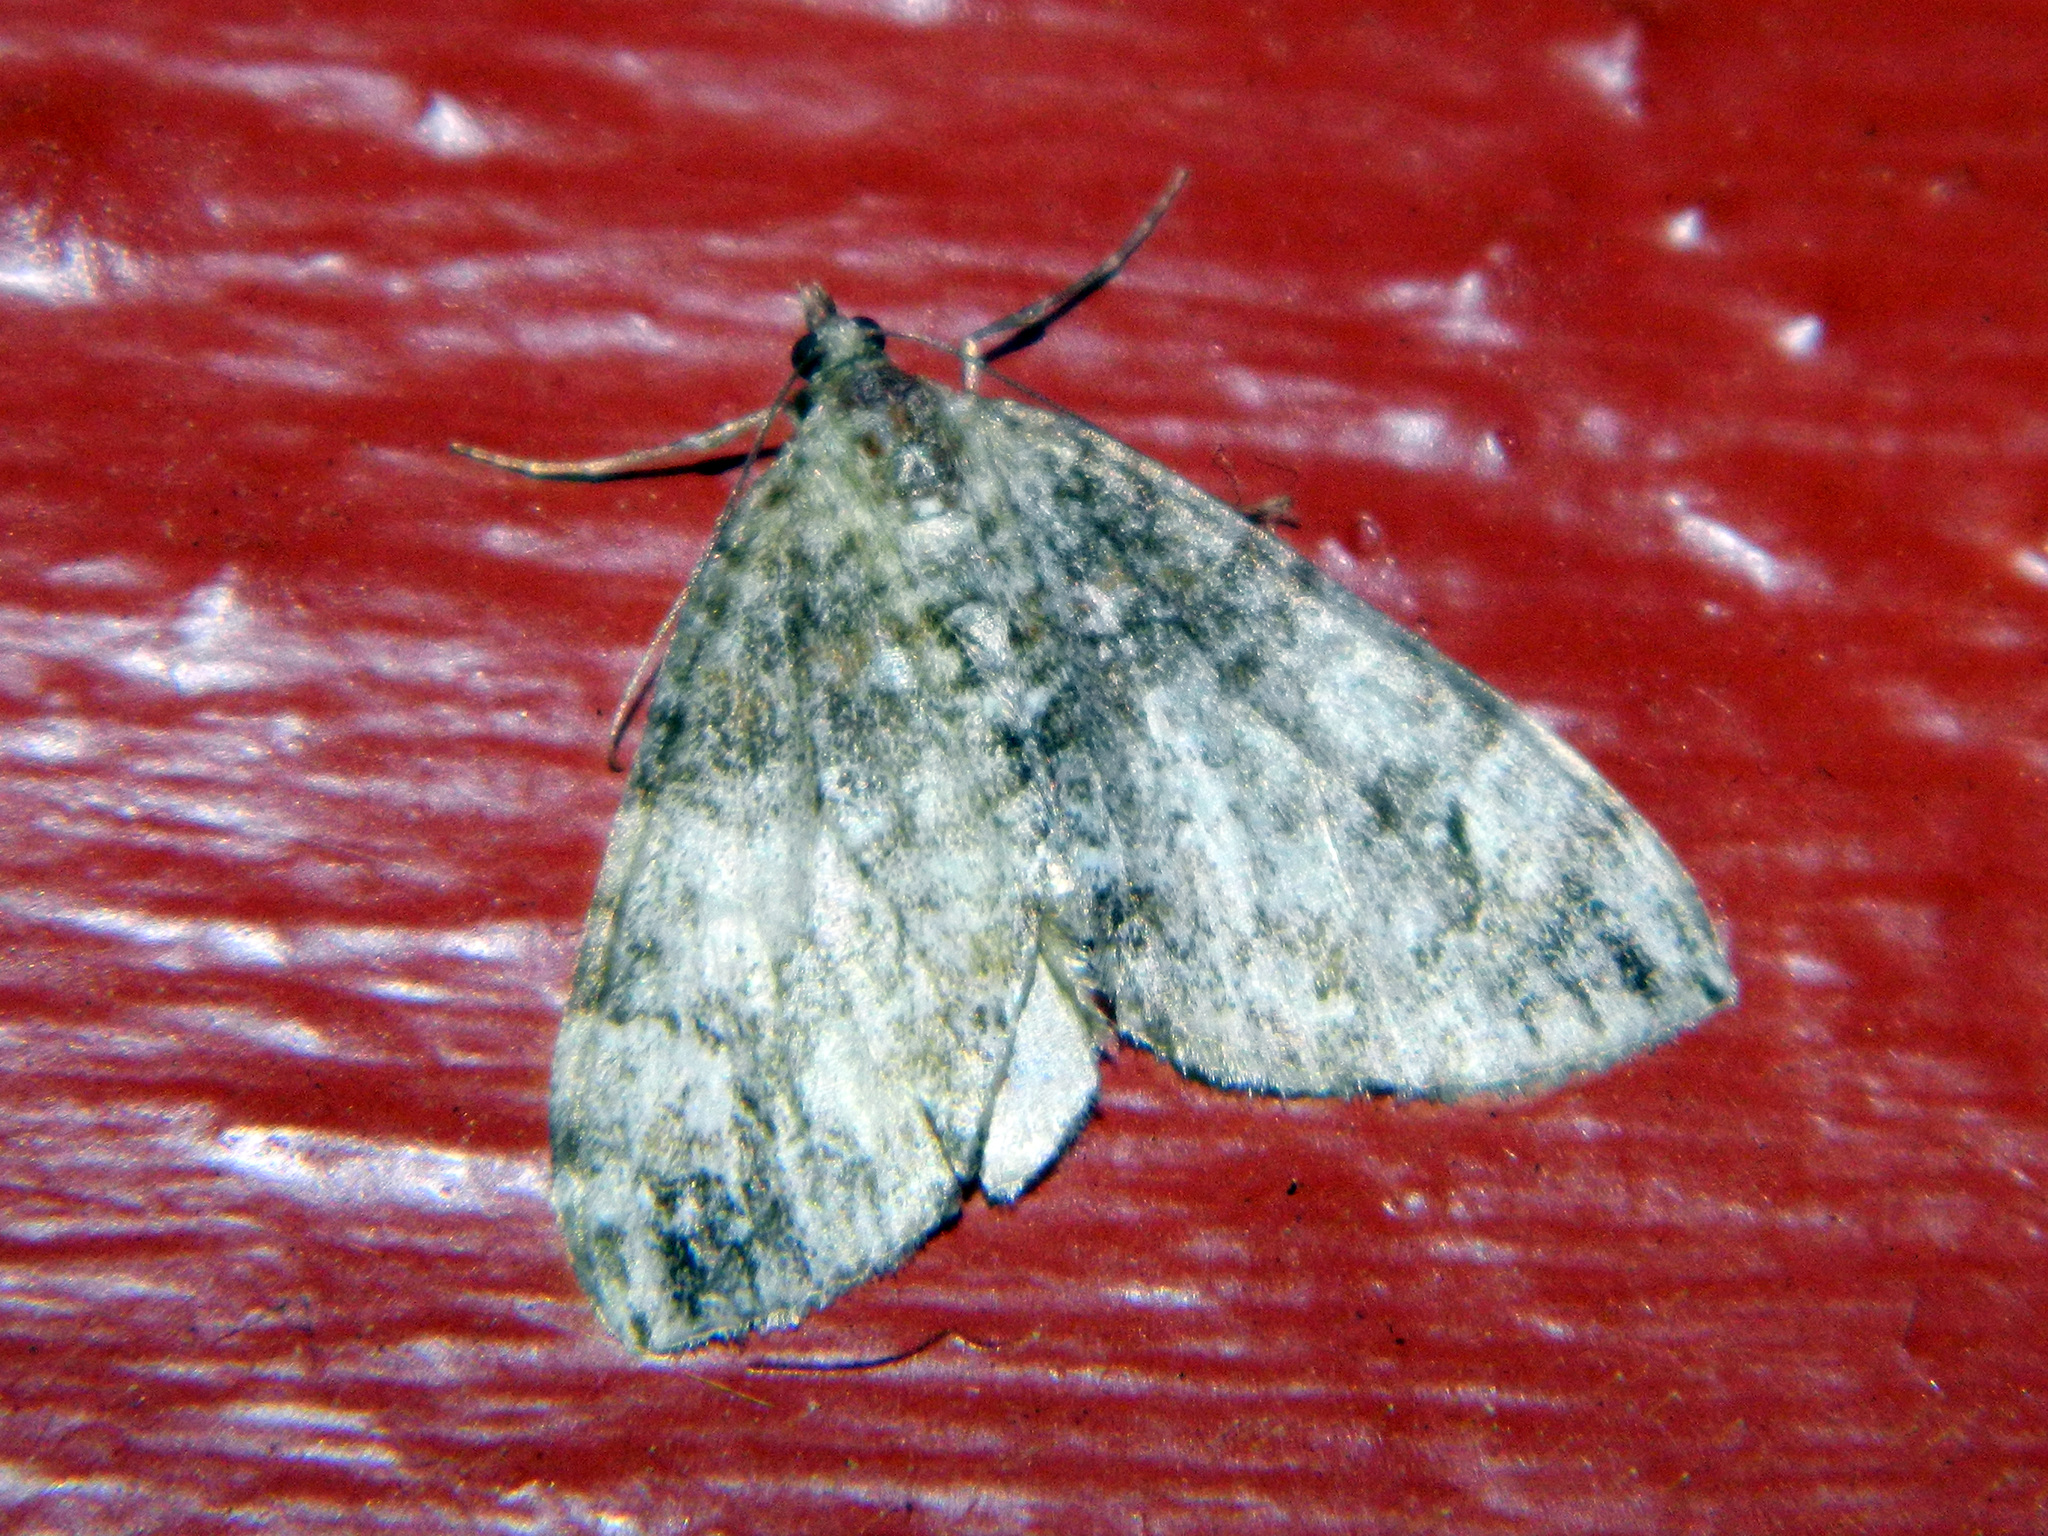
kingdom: Animalia
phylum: Arthropoda
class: Insecta
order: Lepidoptera
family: Geometridae
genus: Dysstroma
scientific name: Dysstroma citrata
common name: Dark marbled carpet
